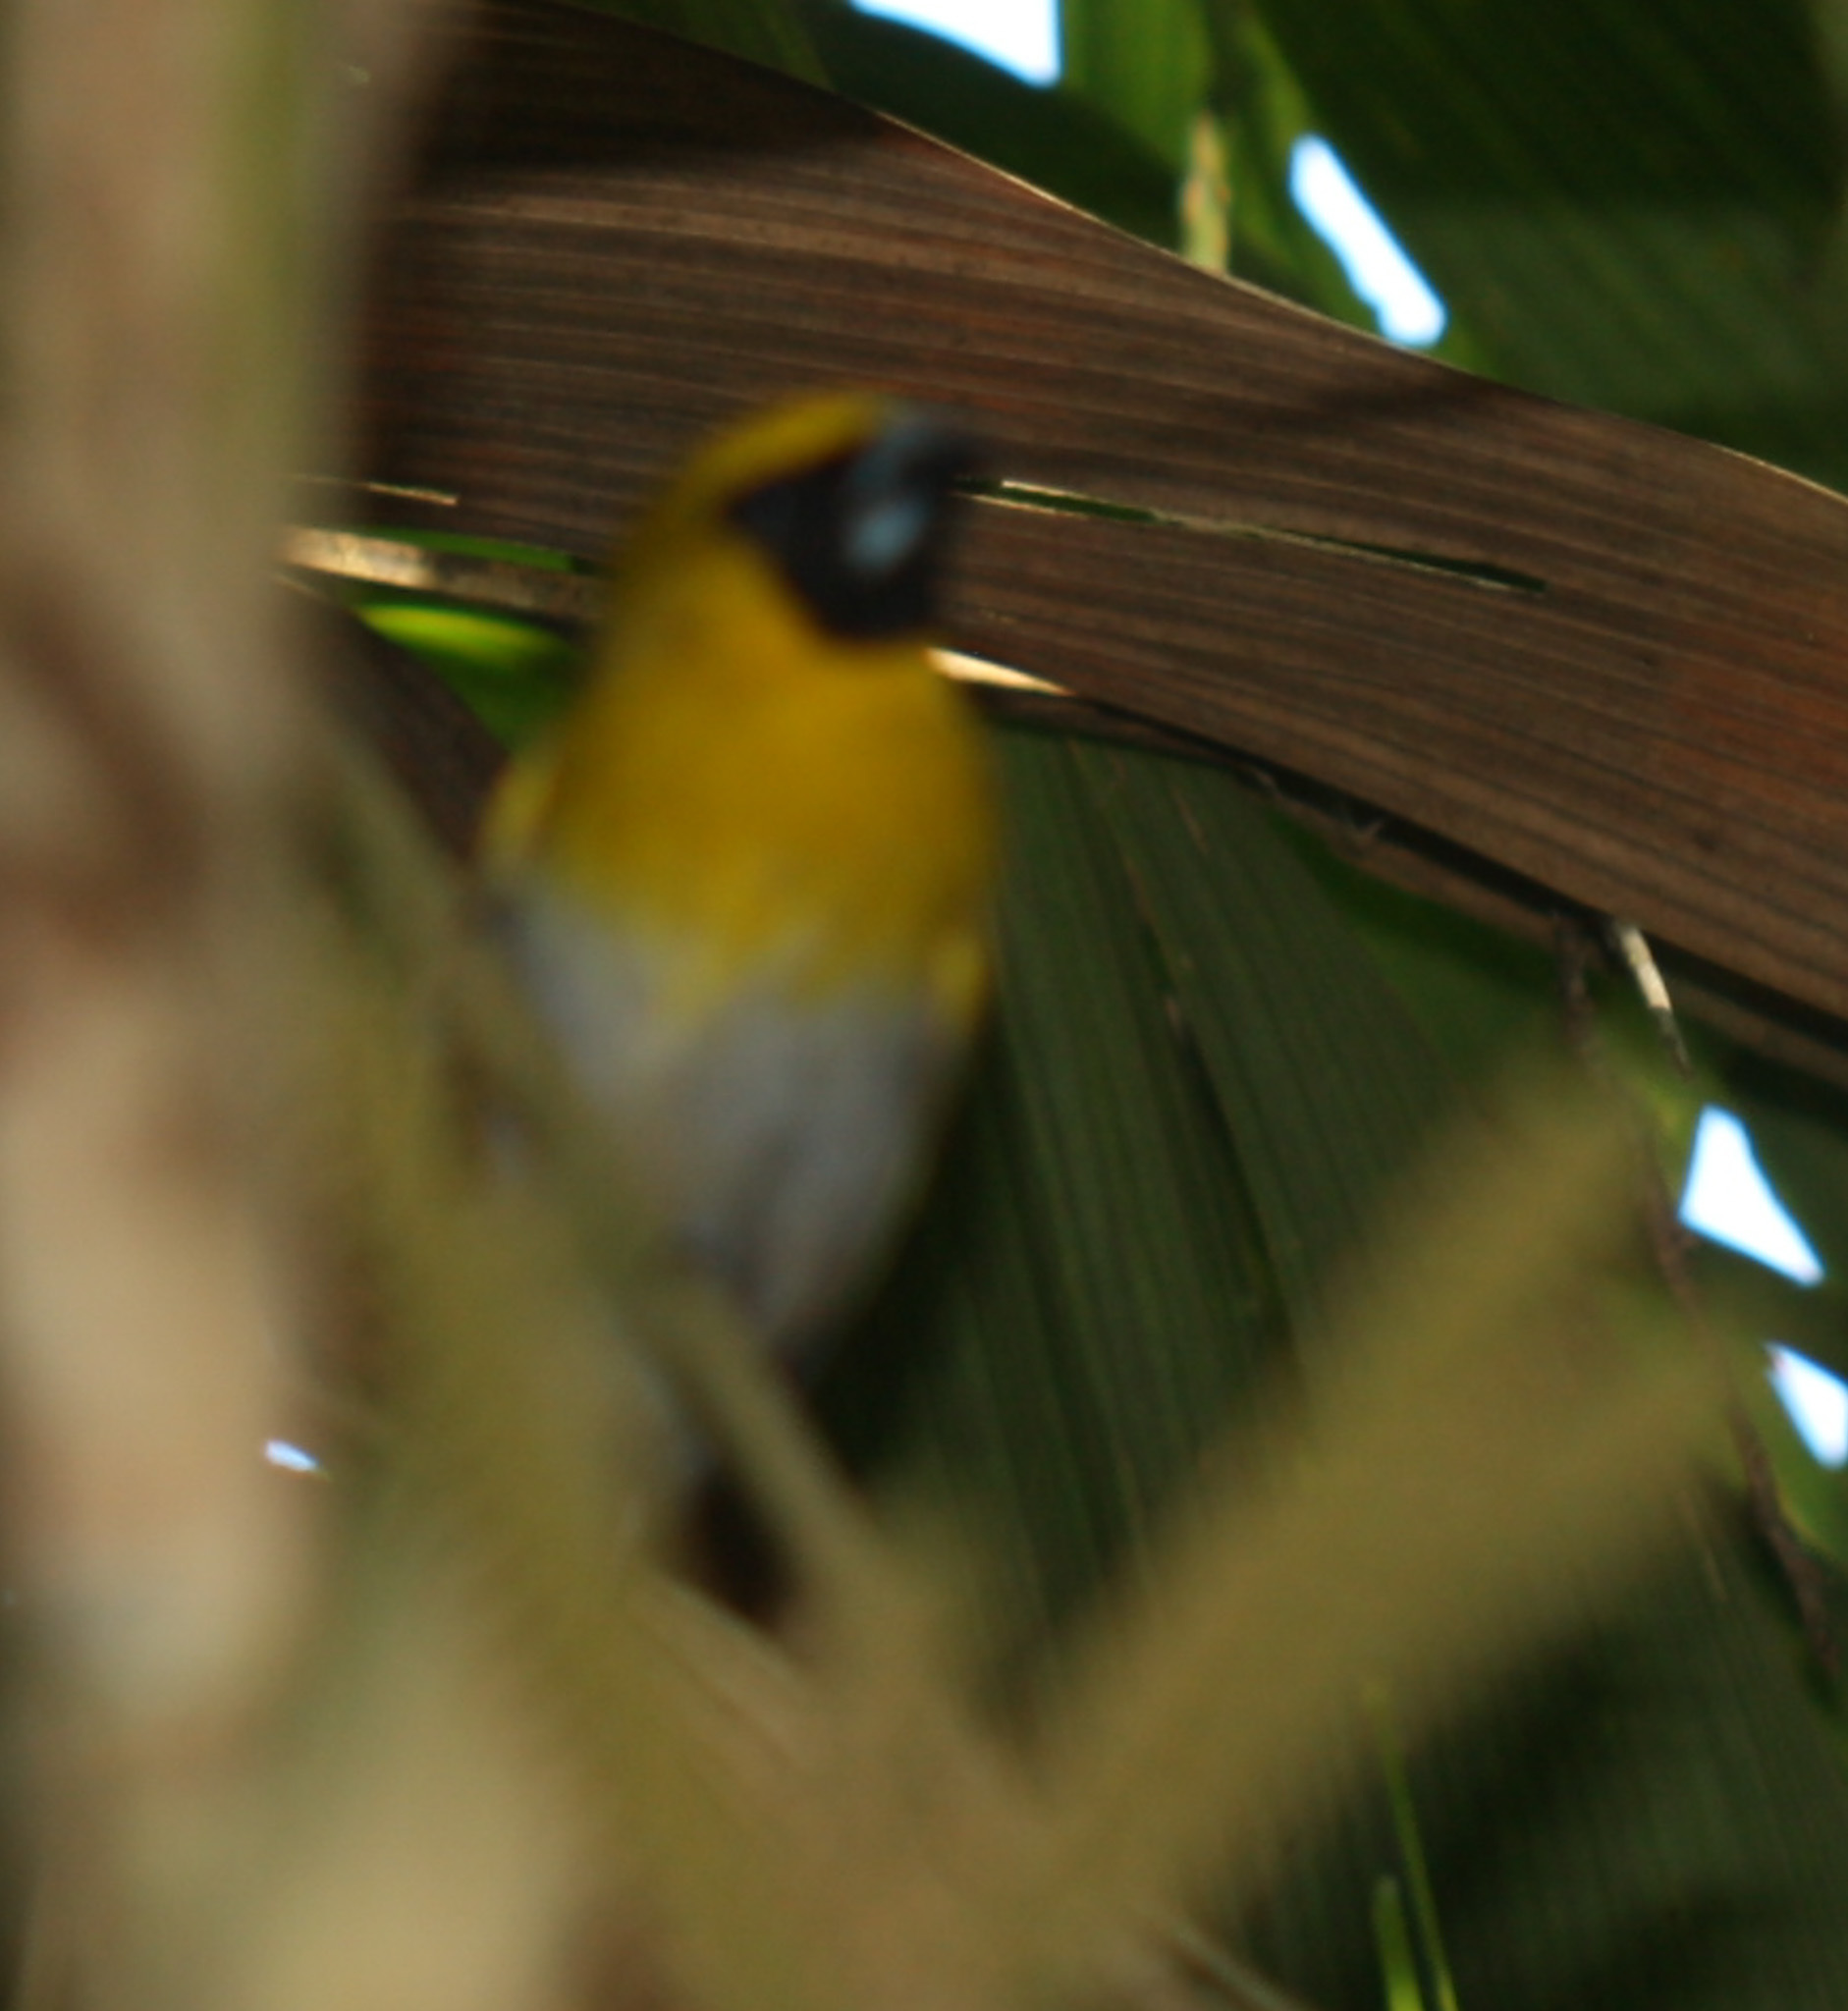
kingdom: Animalia
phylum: Chordata
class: Aves
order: Passeriformes
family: Cardinalidae
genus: Caryothraustes
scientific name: Caryothraustes poliogaster
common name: Black-faced grosbeak
